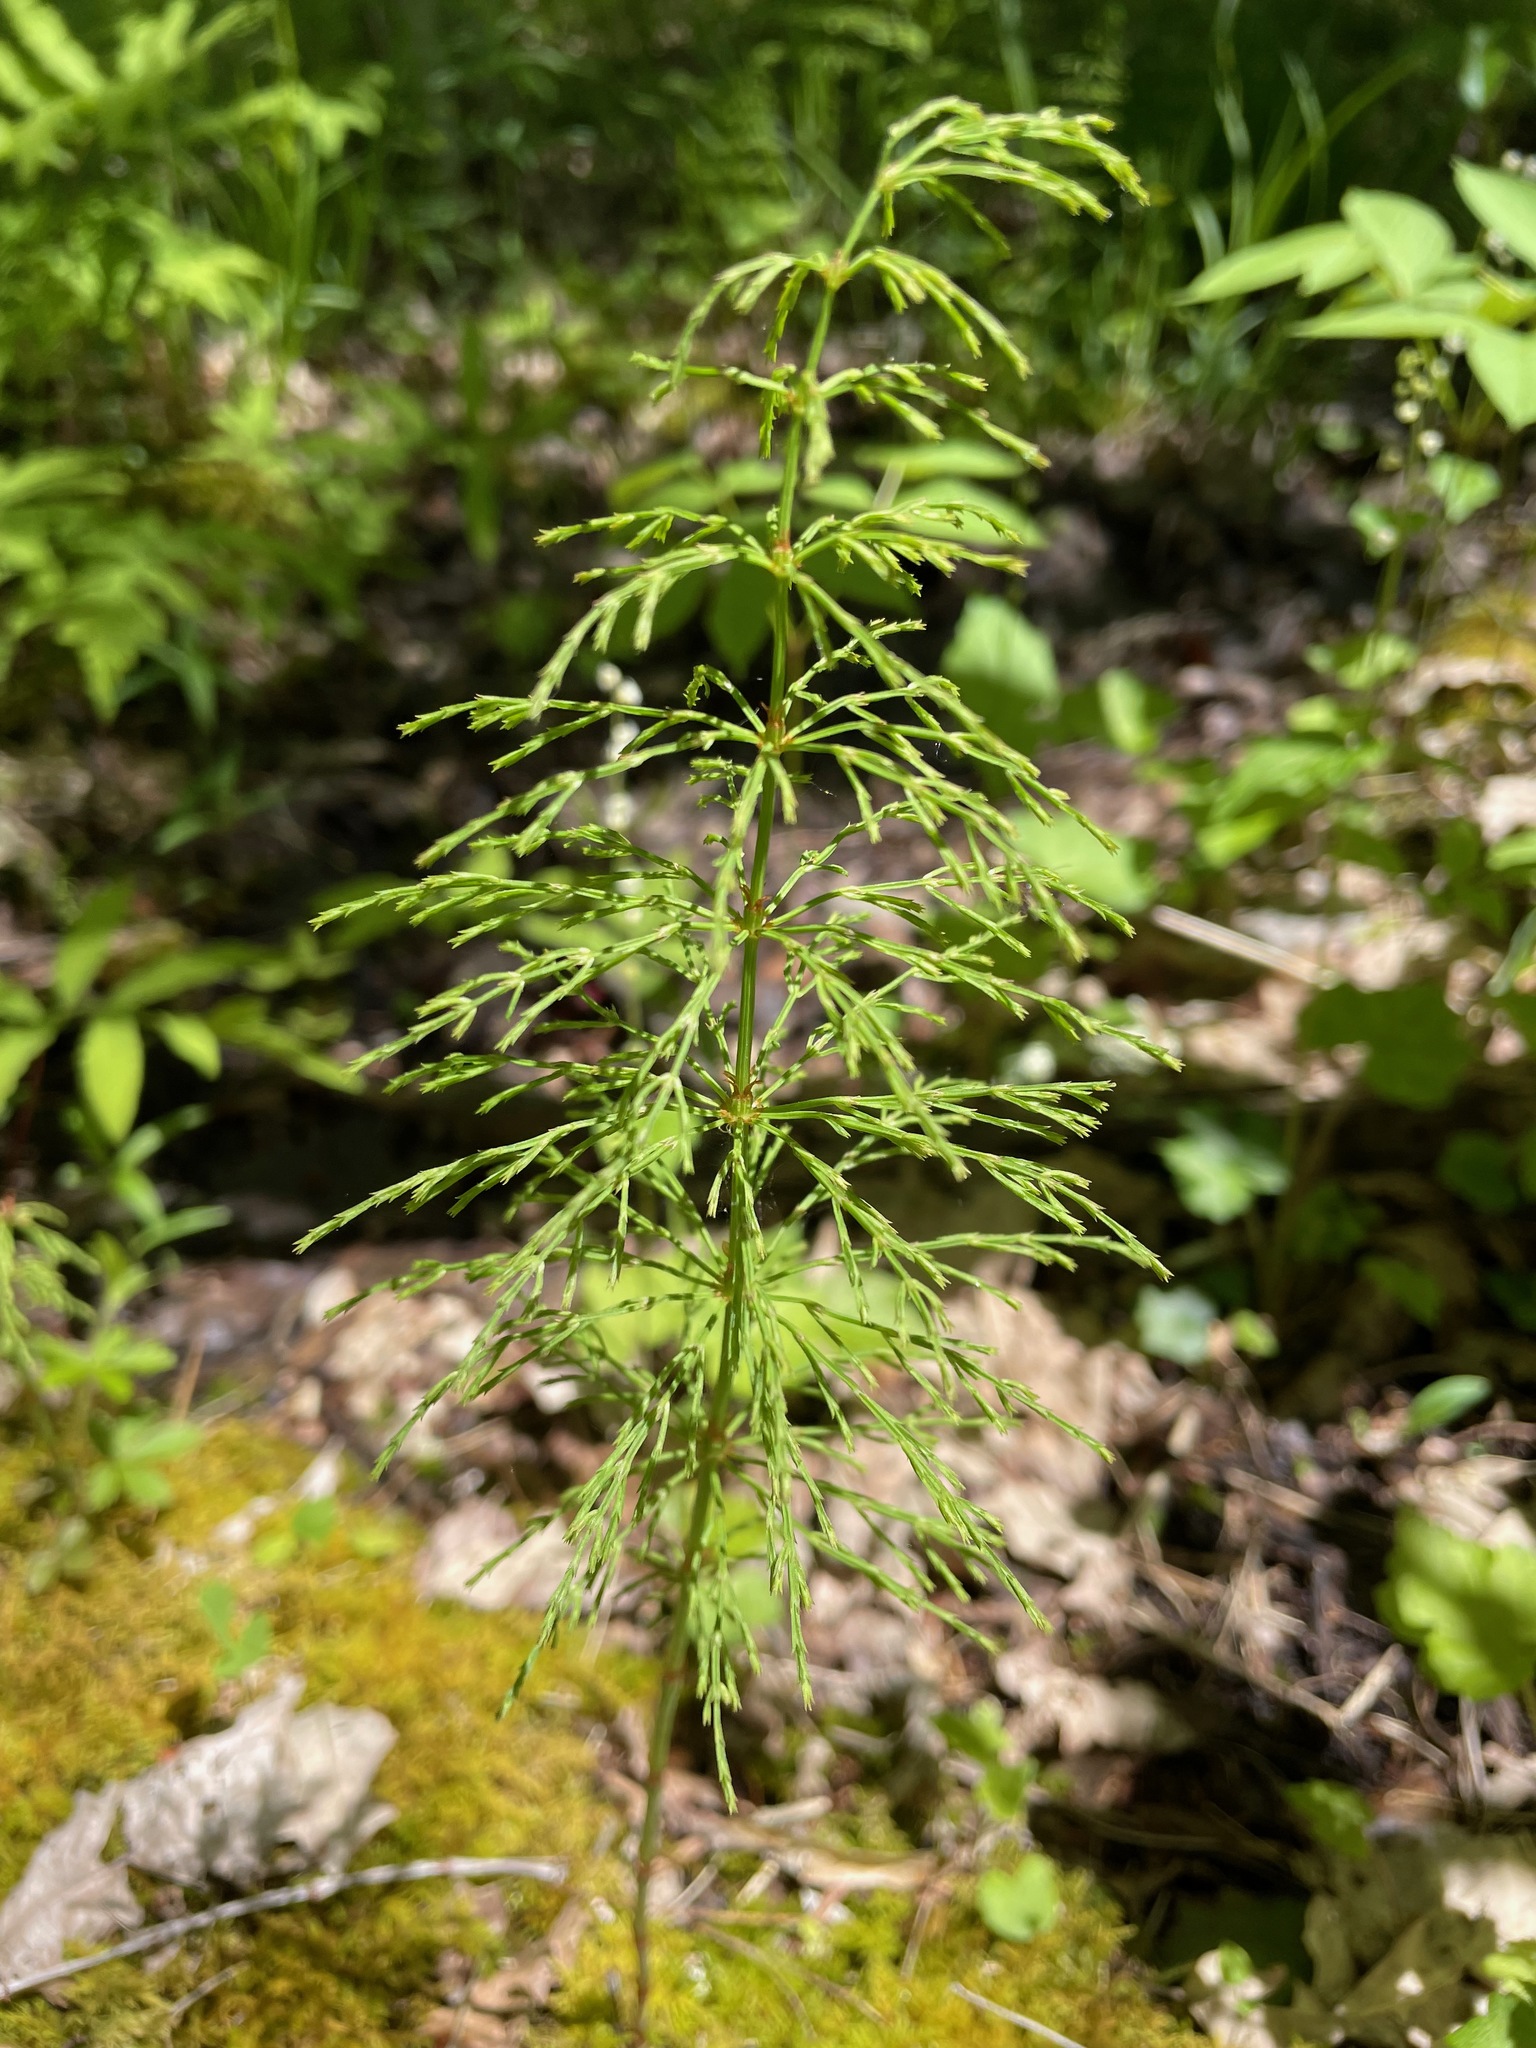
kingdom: Plantae
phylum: Tracheophyta
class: Polypodiopsida
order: Equisetales
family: Equisetaceae
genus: Equisetum
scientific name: Equisetum sylvaticum
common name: Wood horsetail
